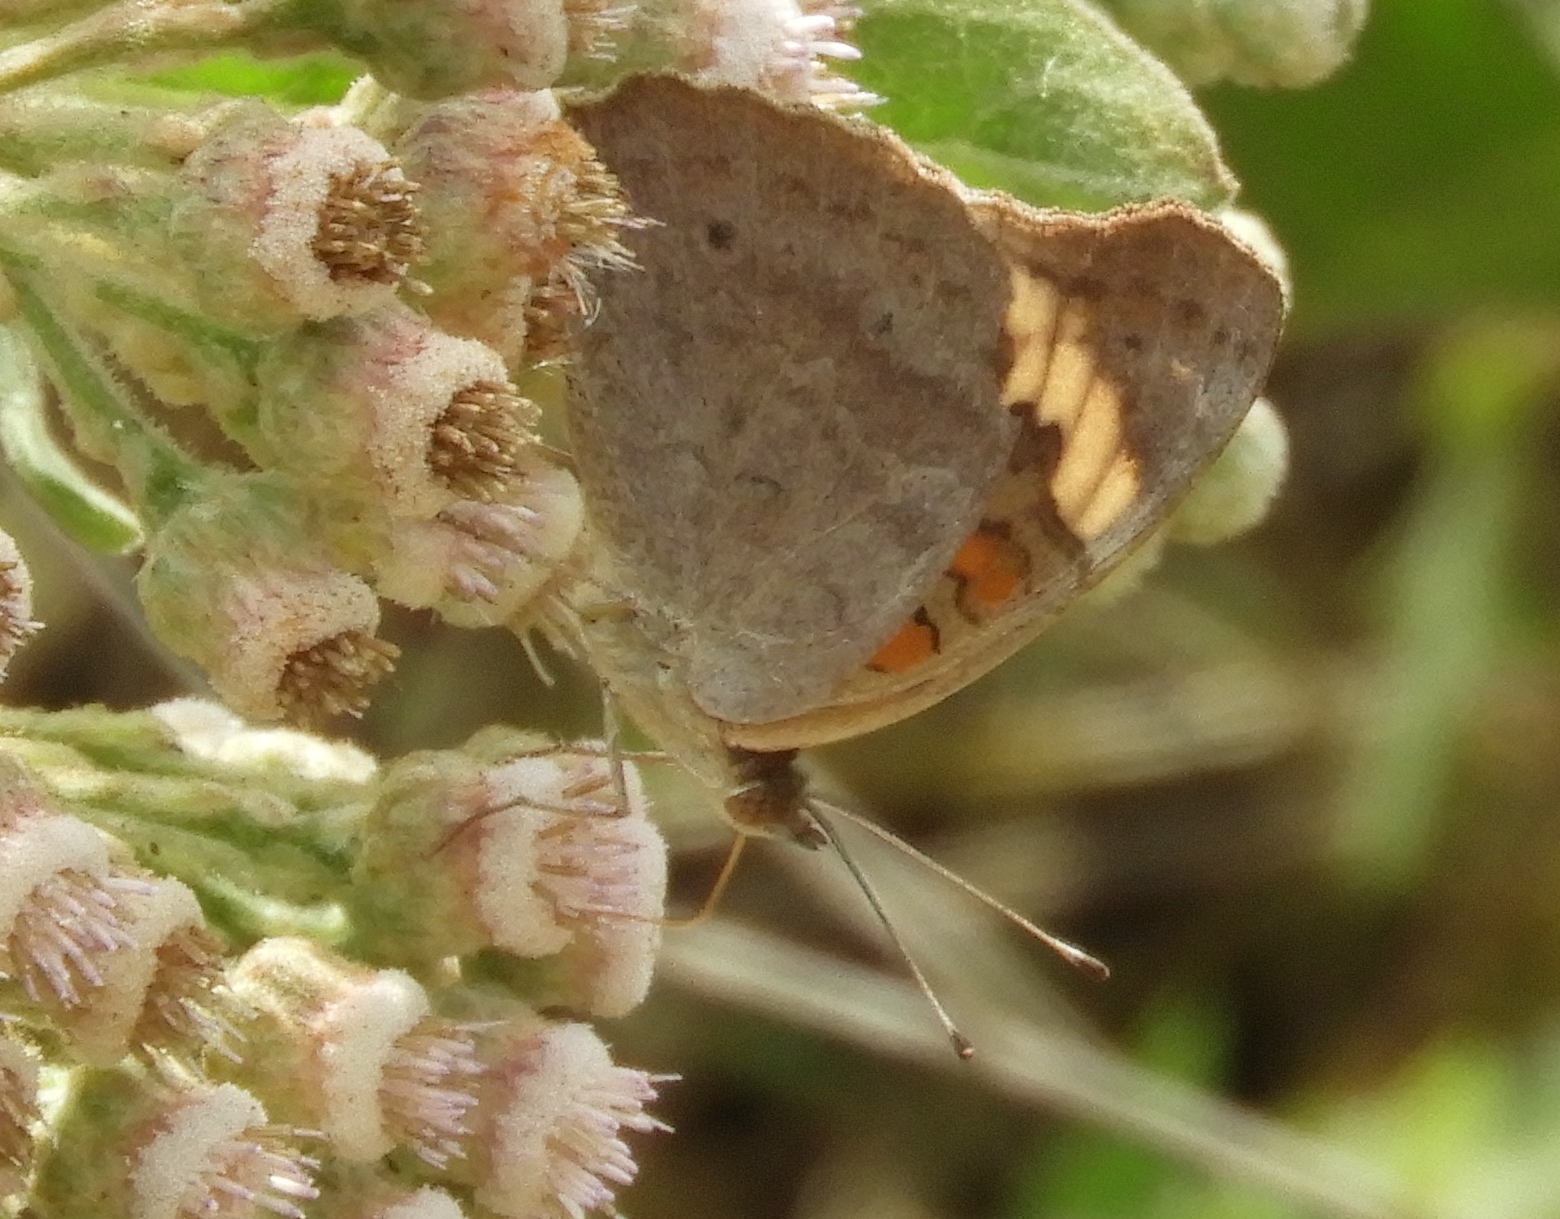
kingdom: Animalia
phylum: Arthropoda
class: Insecta
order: Lepidoptera
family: Nymphalidae
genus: Junonia
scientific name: Junonia coenia
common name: Common buckeye
